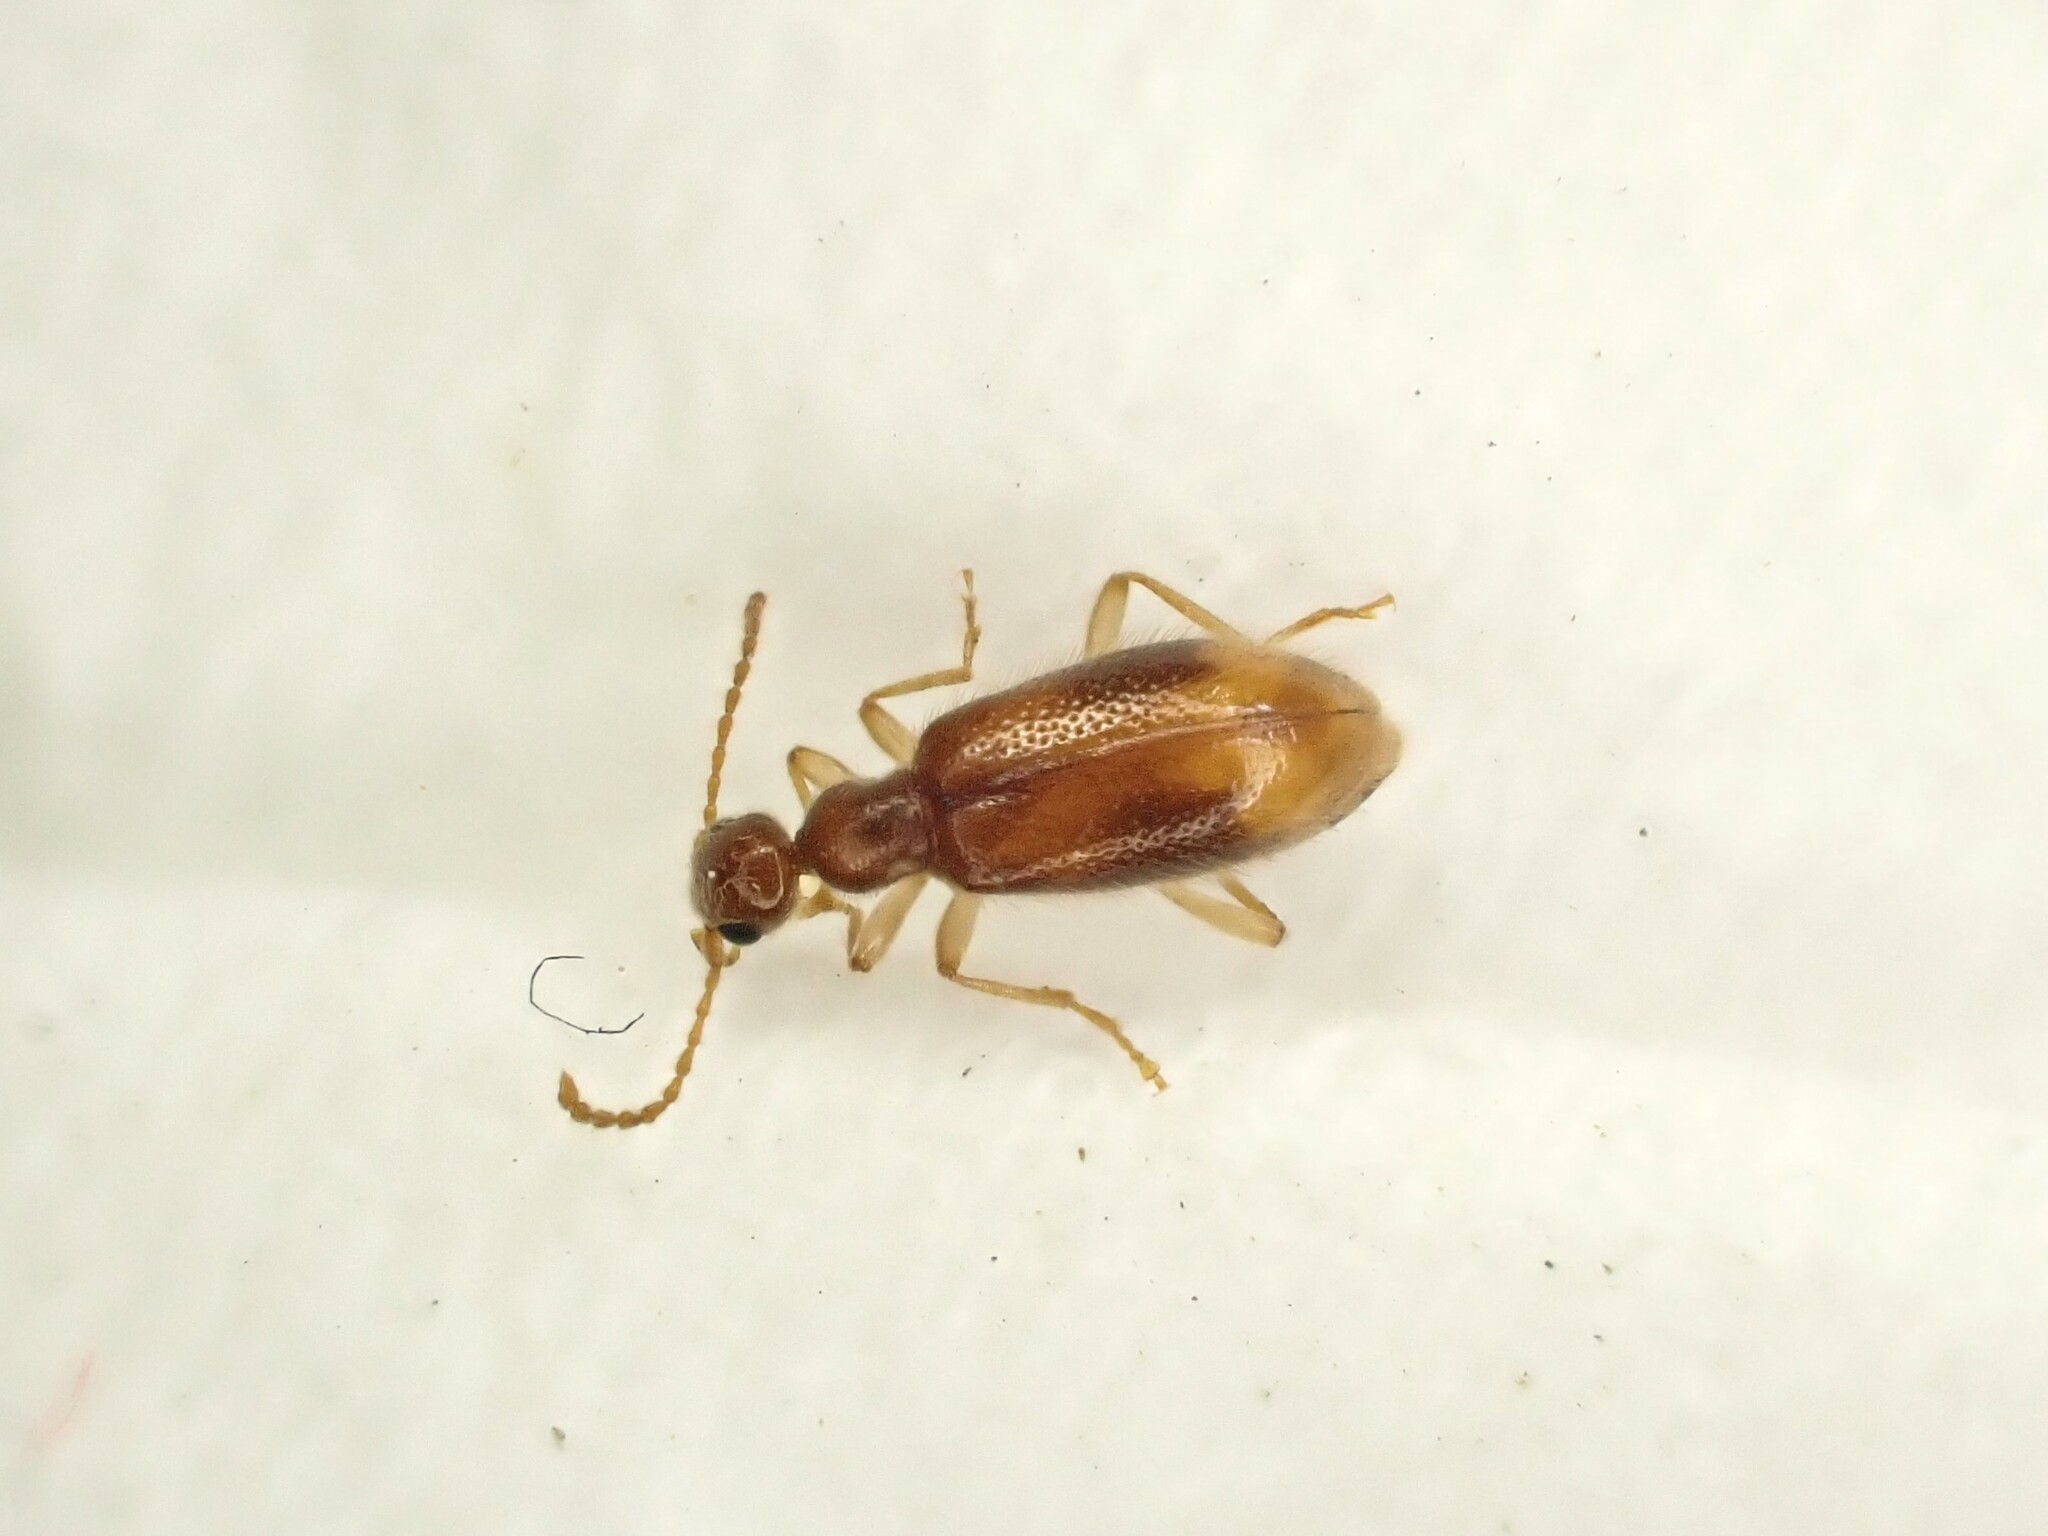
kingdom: Animalia
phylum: Arthropoda
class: Insecta
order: Coleoptera
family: Anthicidae
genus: Sapintus
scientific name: Sapintus pellucidipes
